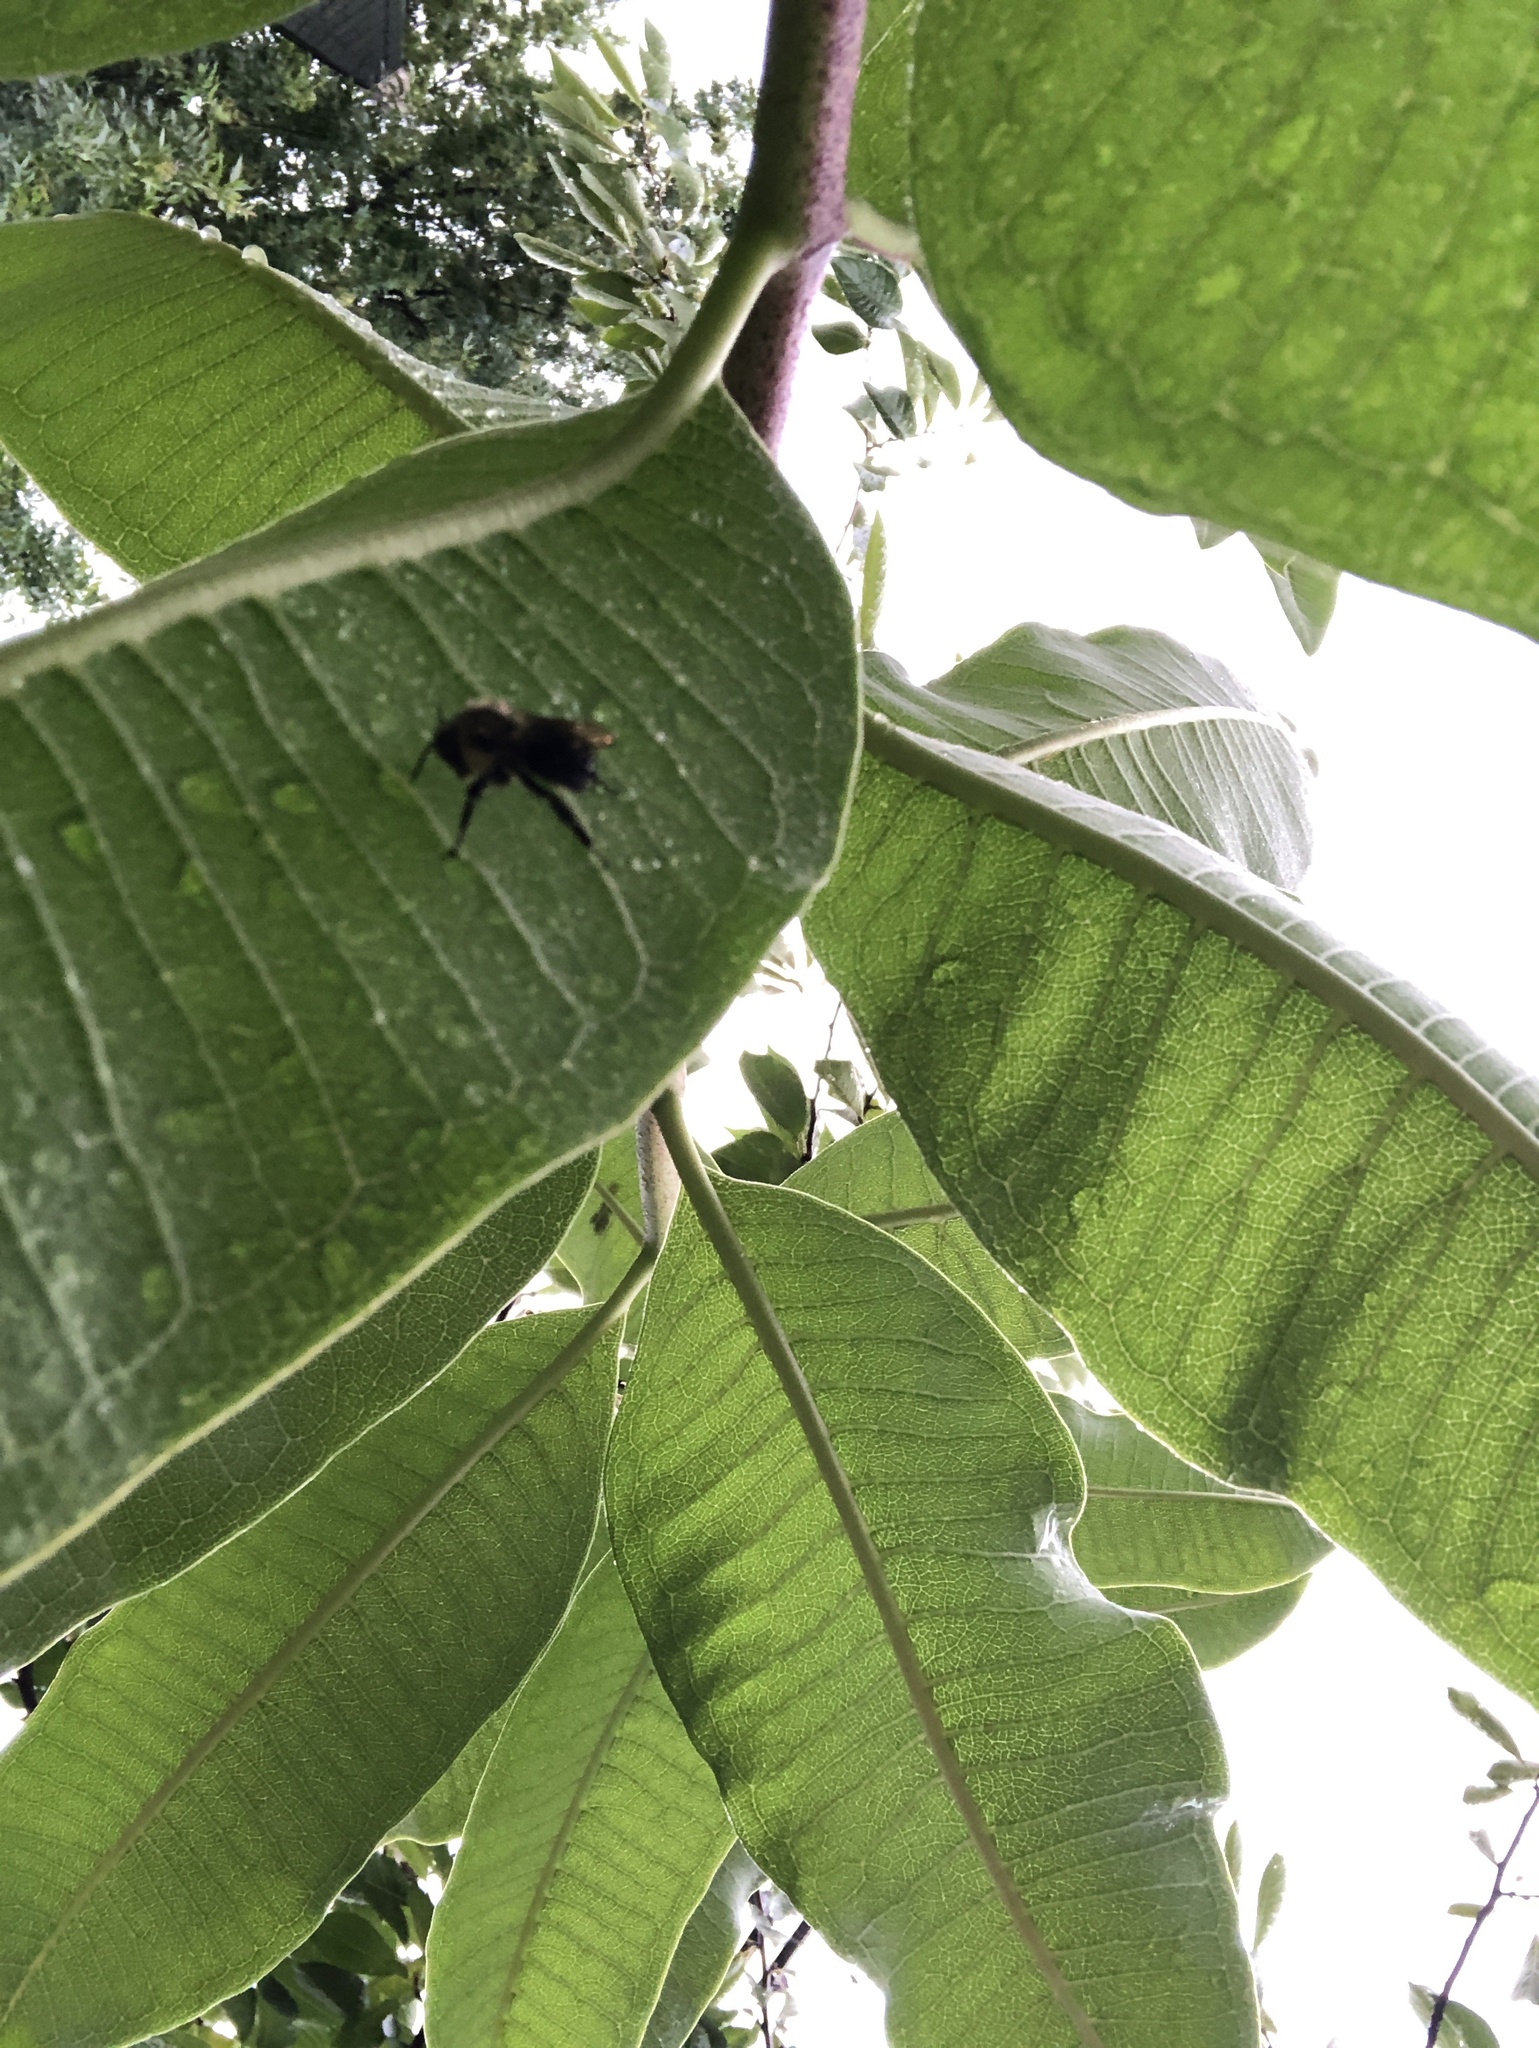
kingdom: Animalia
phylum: Arthropoda
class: Insecta
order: Hymenoptera
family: Apidae
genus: Bombus
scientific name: Bombus
